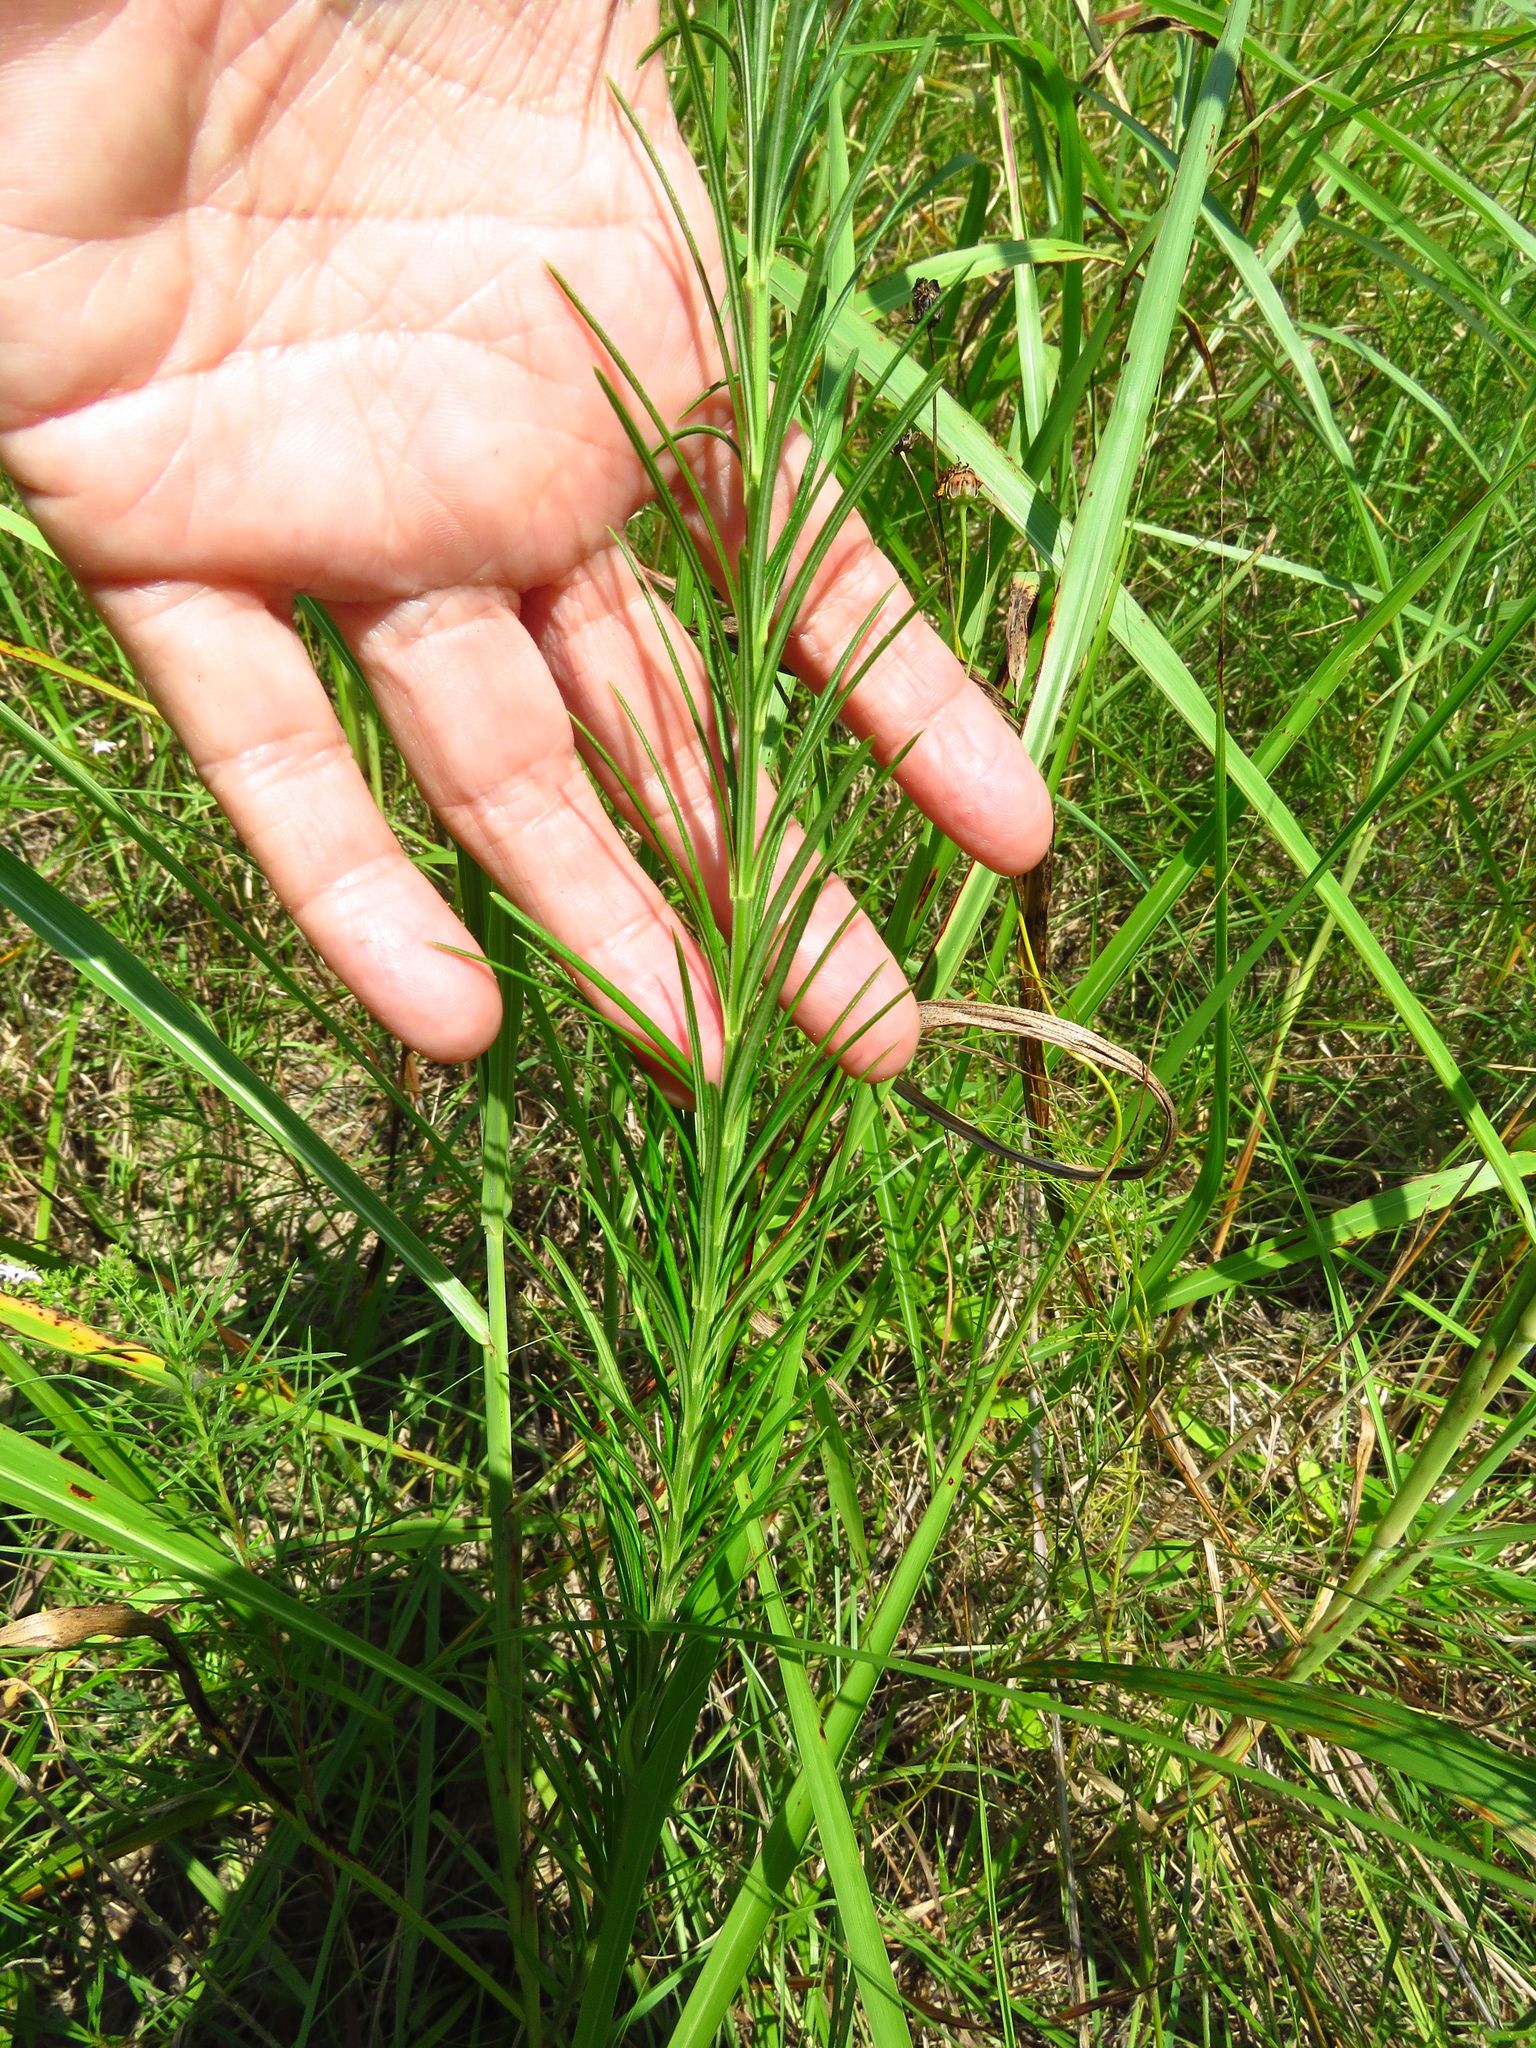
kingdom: Plantae
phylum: Tracheophyta
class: Magnoliopsida
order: Gentianales
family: Apocynaceae
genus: Asclepias
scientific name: Asclepias verticillata
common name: Eastern whorled milkweed
